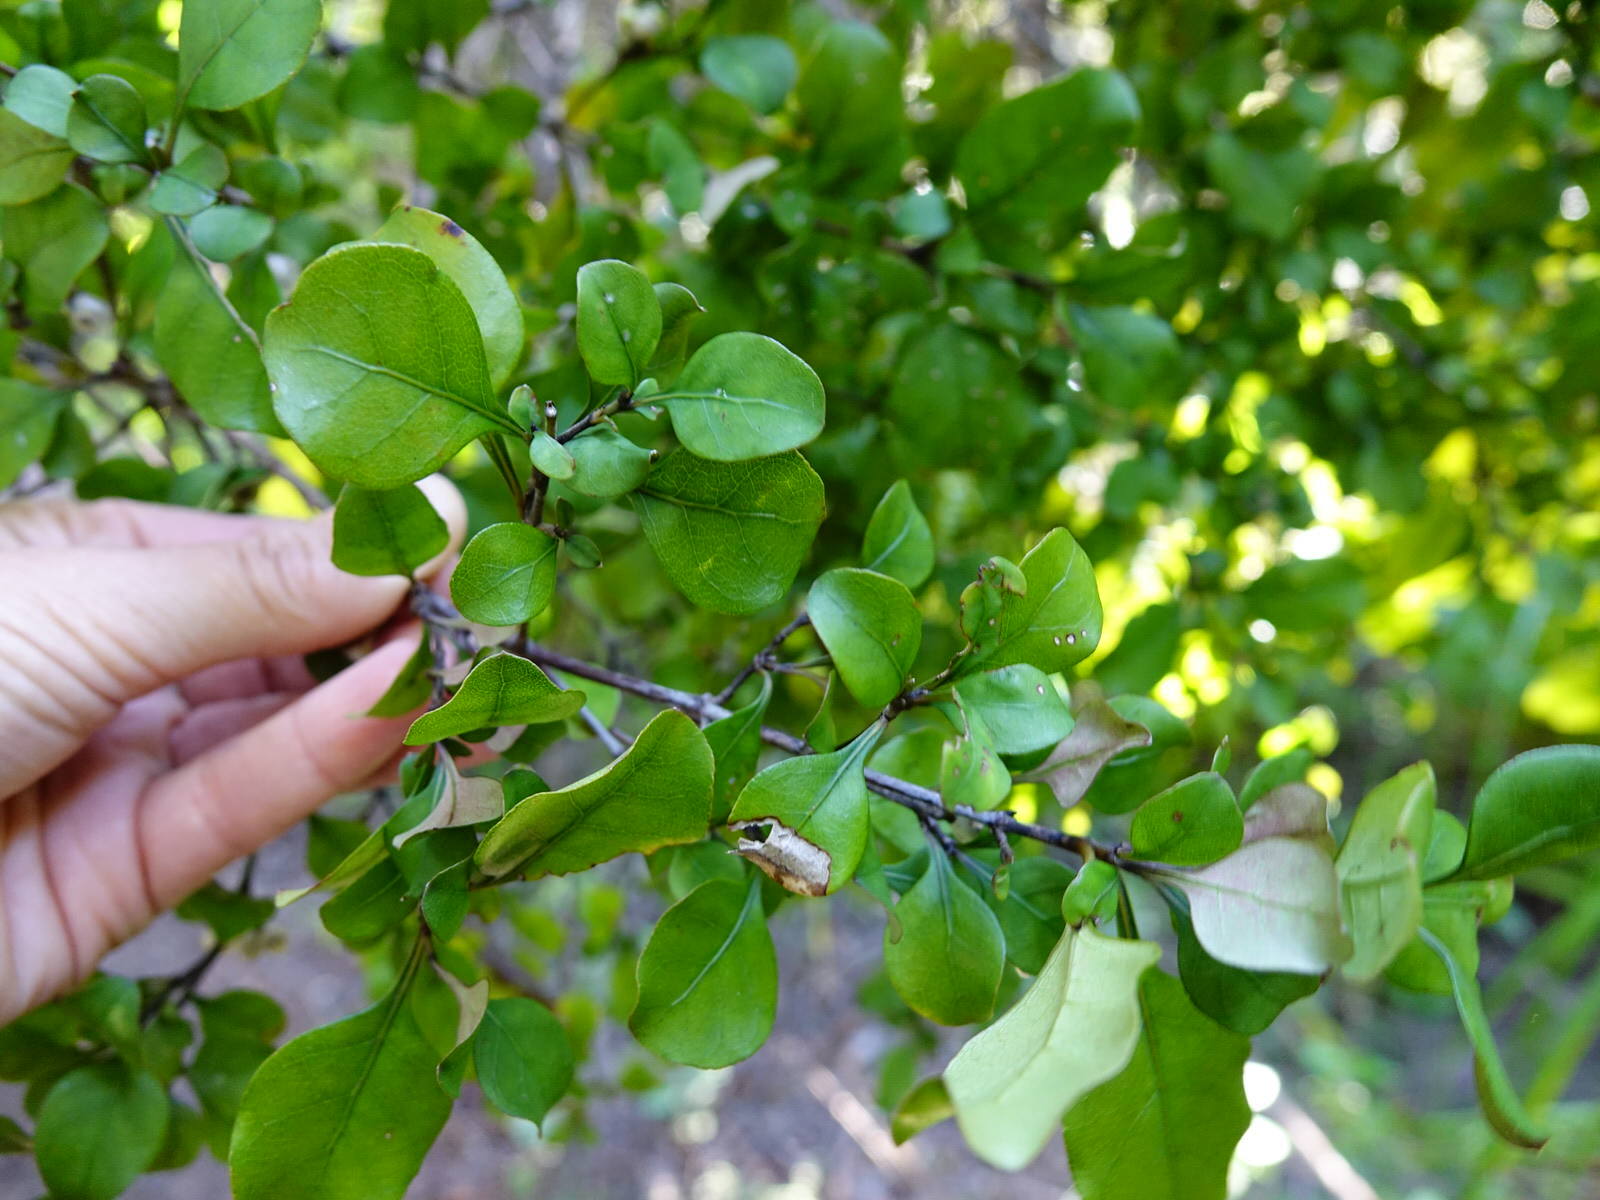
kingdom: Plantae
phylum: Tracheophyta
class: Magnoliopsida
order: Gentianales
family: Rubiaceae
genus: Coprosma
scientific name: Coprosma arborea
